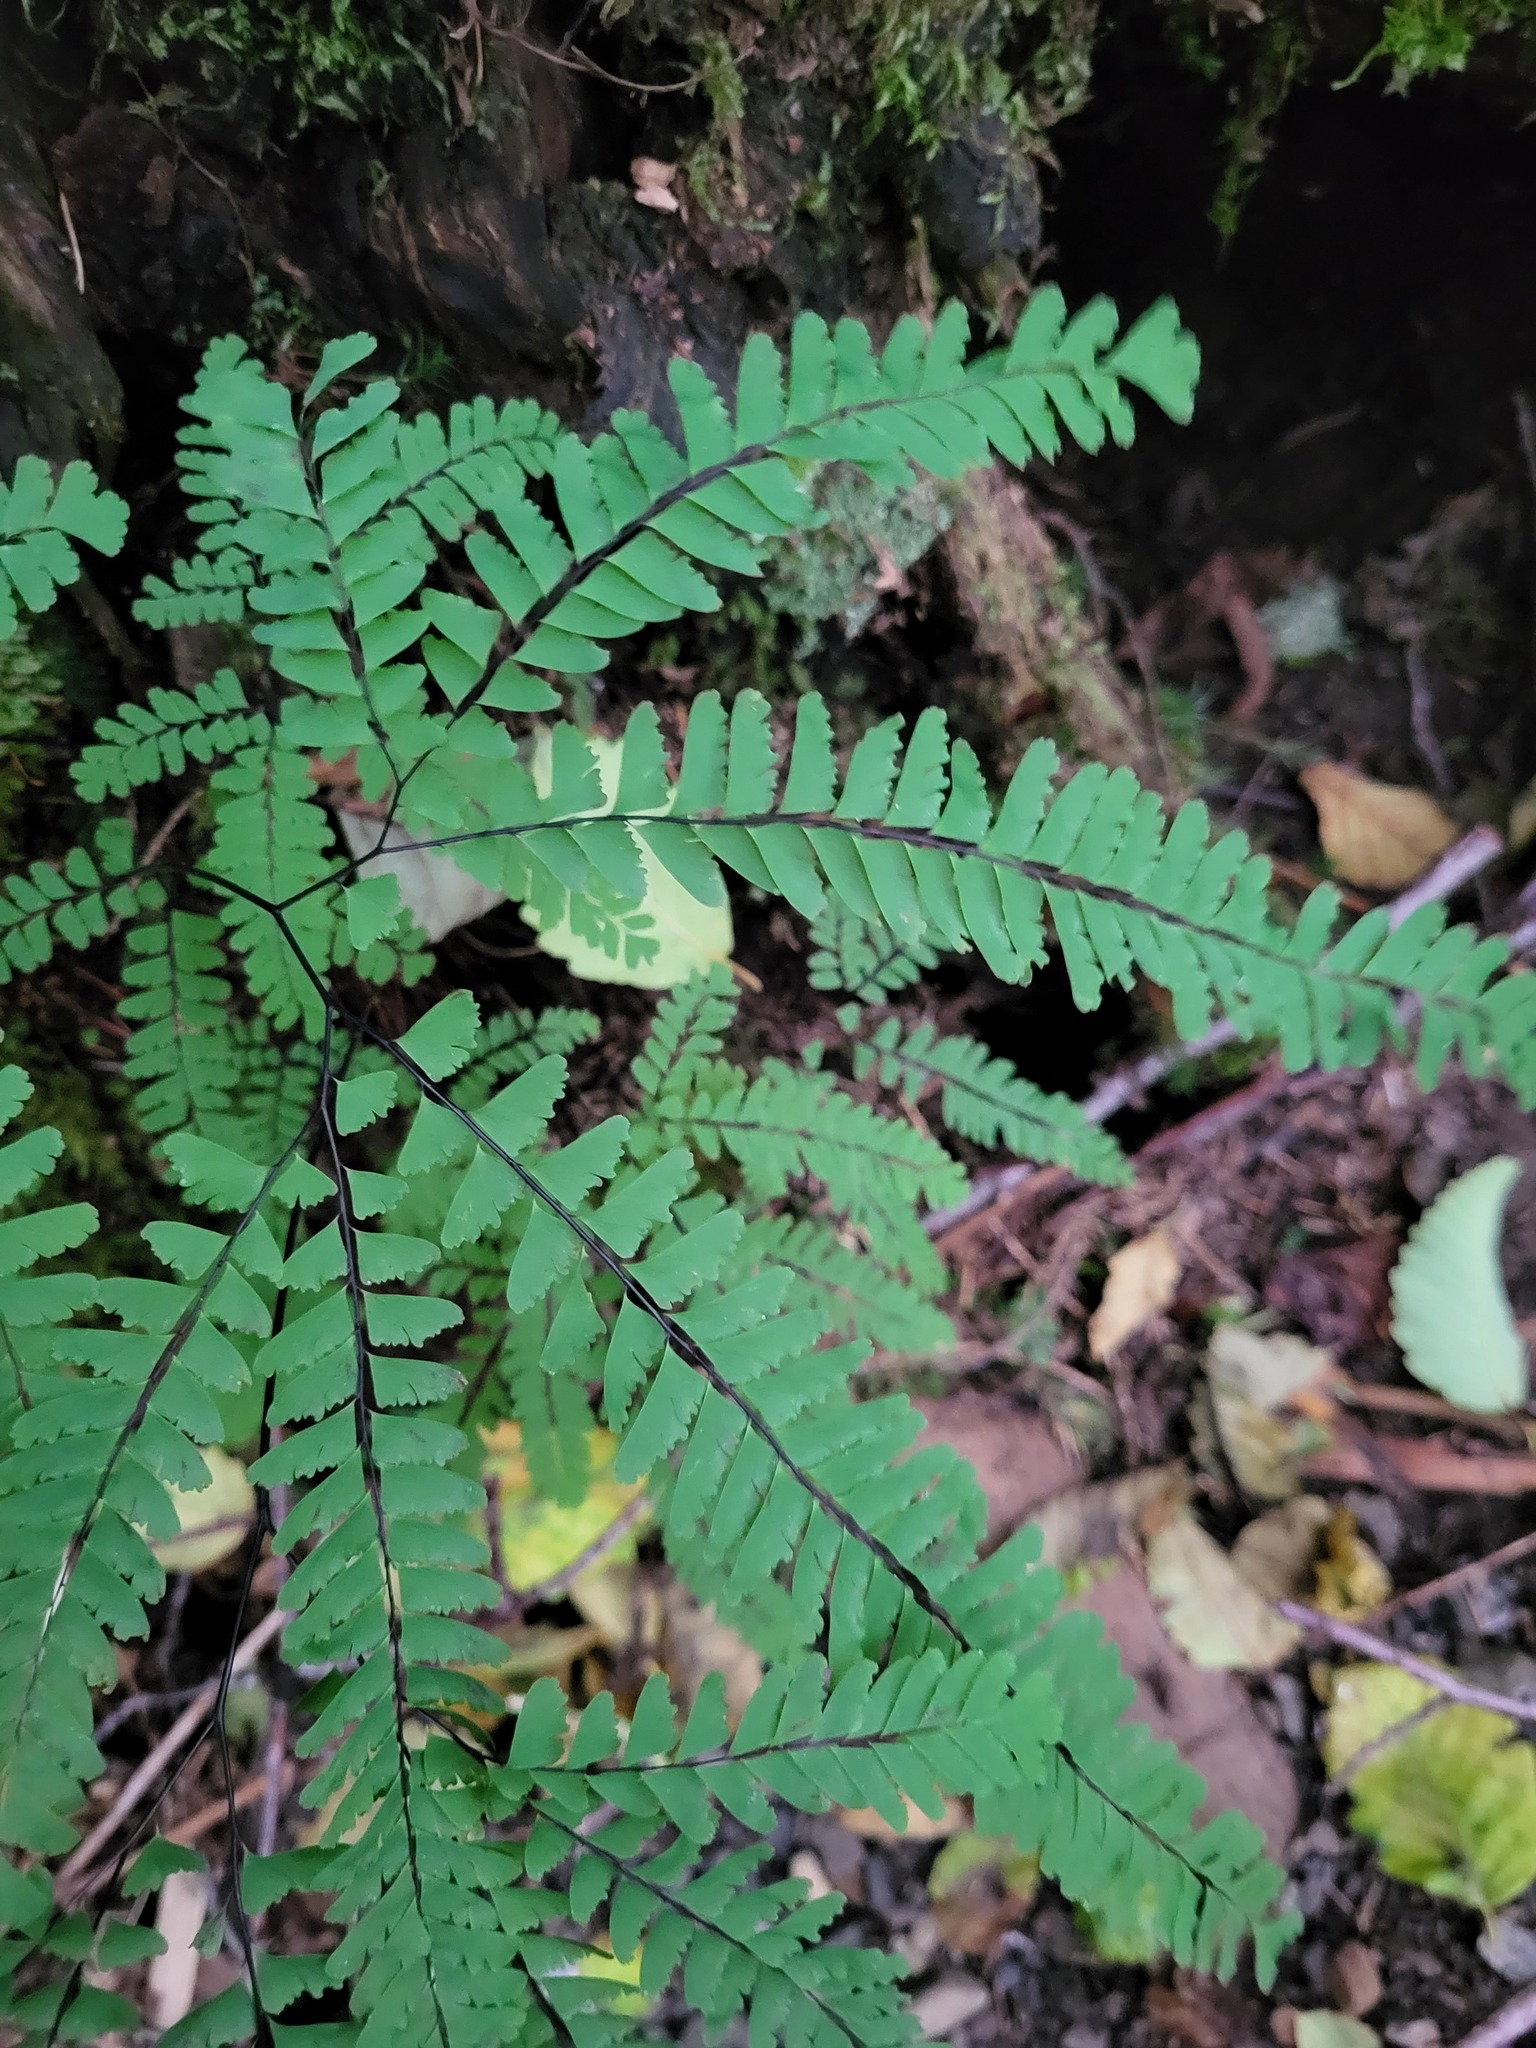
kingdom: Plantae
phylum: Tracheophyta
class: Polypodiopsida
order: Polypodiales
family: Pteridaceae
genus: Adiantum
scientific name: Adiantum aleuticum
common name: Aleutian maidenhair fern
